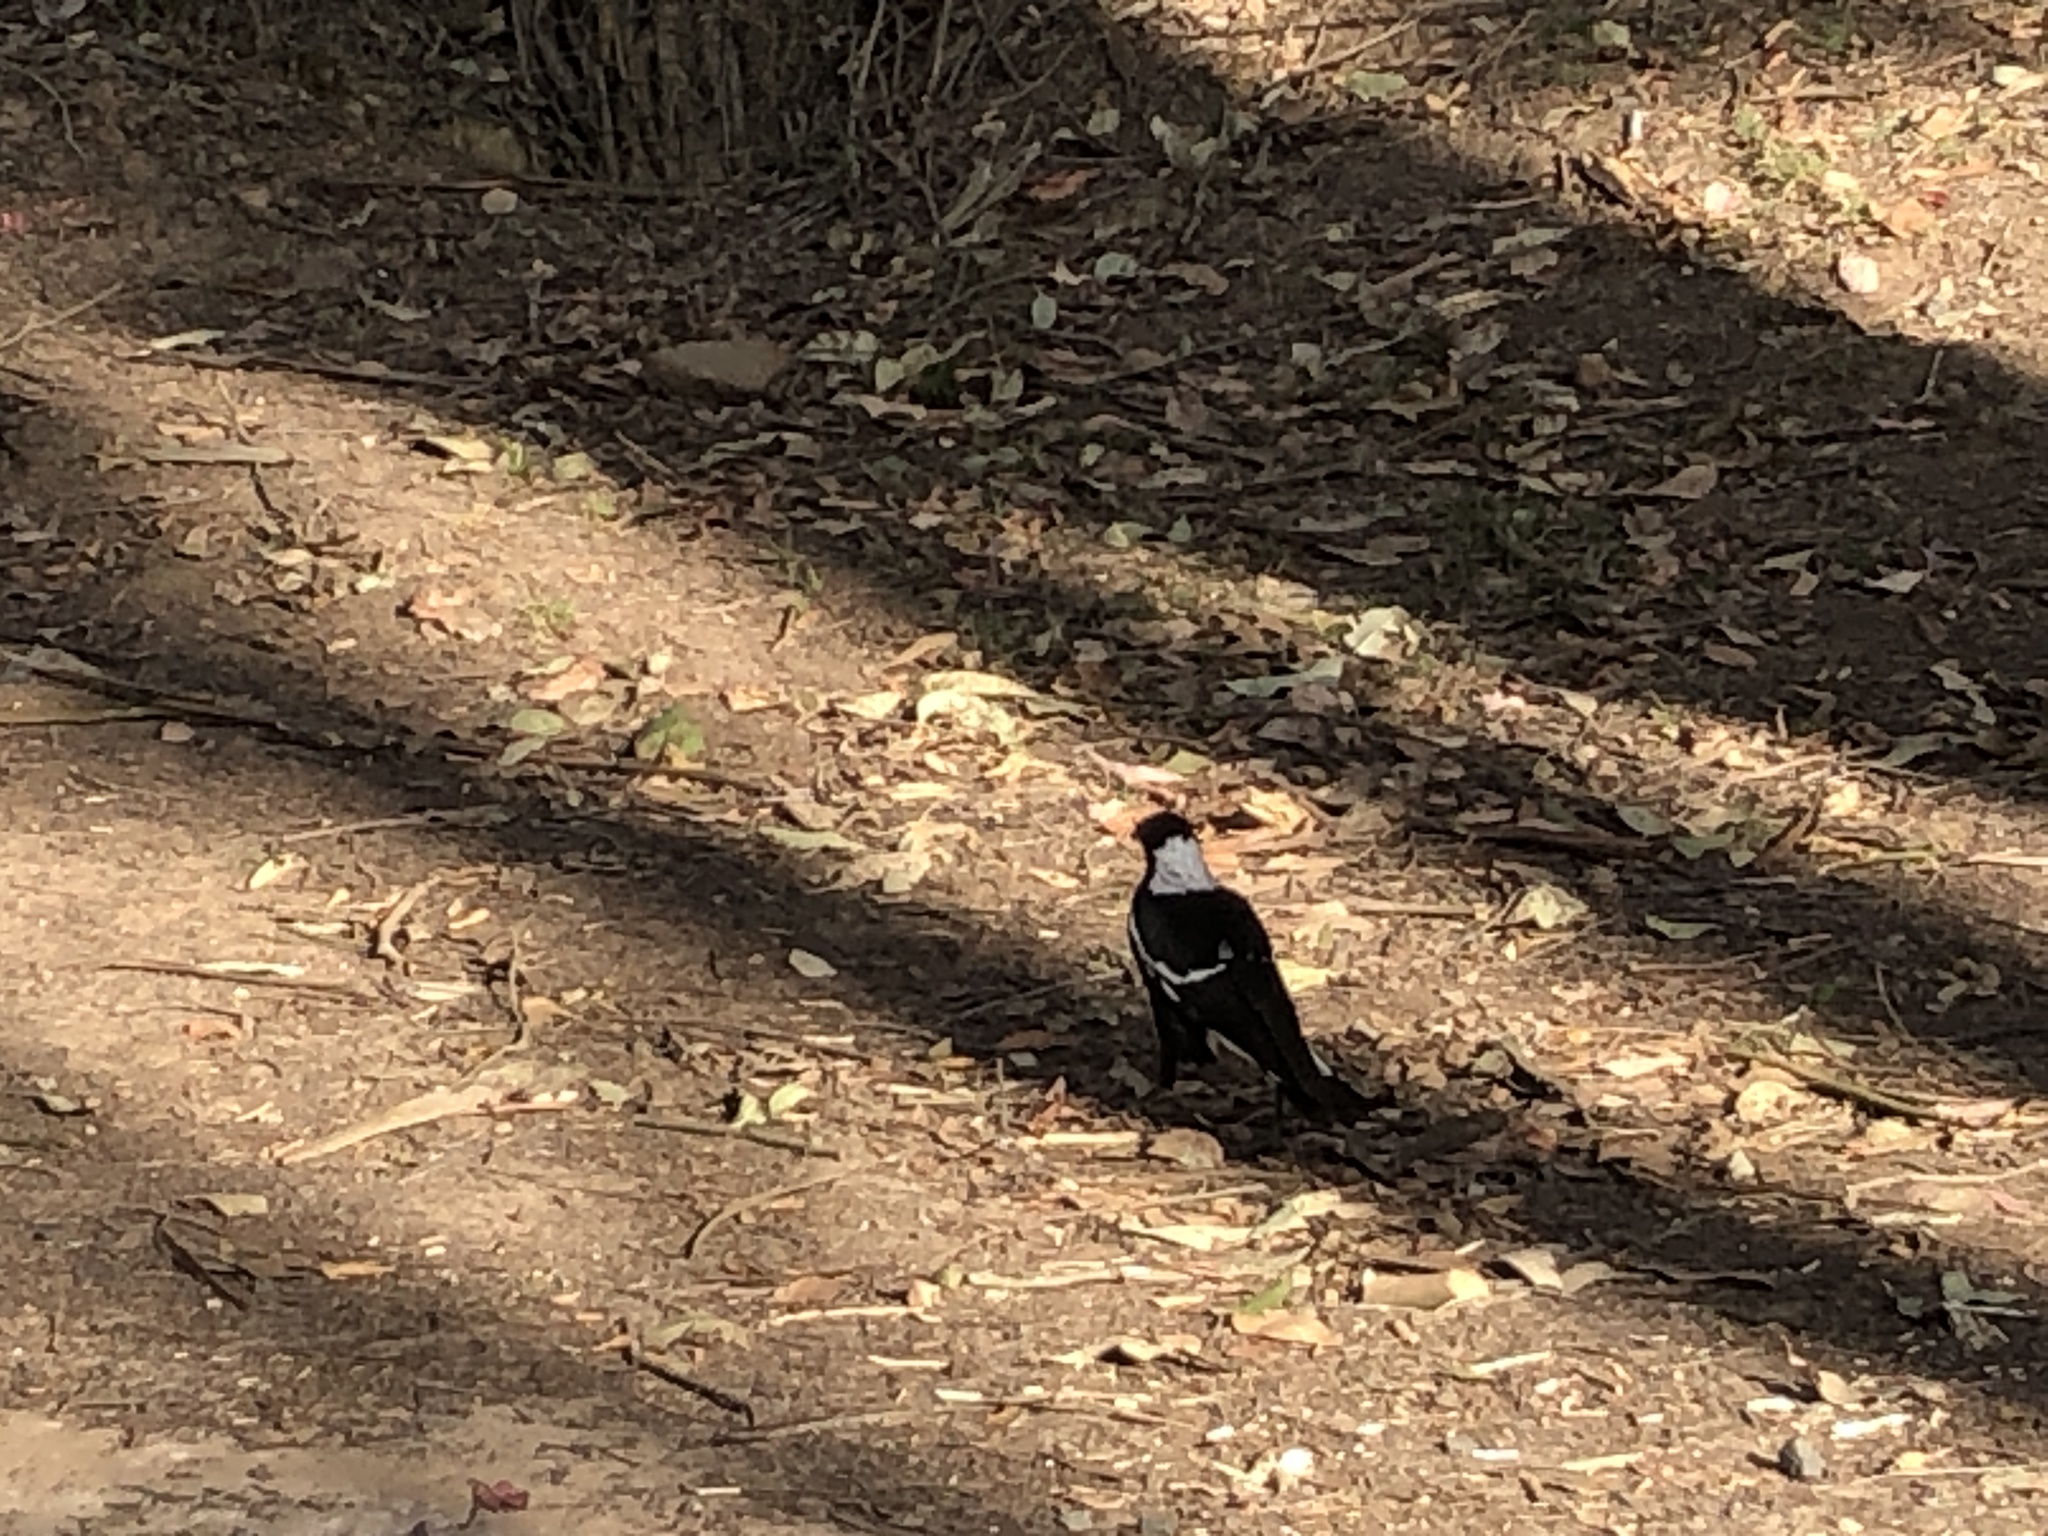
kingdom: Animalia
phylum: Chordata
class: Aves
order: Passeriformes
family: Cracticidae
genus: Gymnorhina
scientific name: Gymnorhina tibicen
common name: Australian magpie
